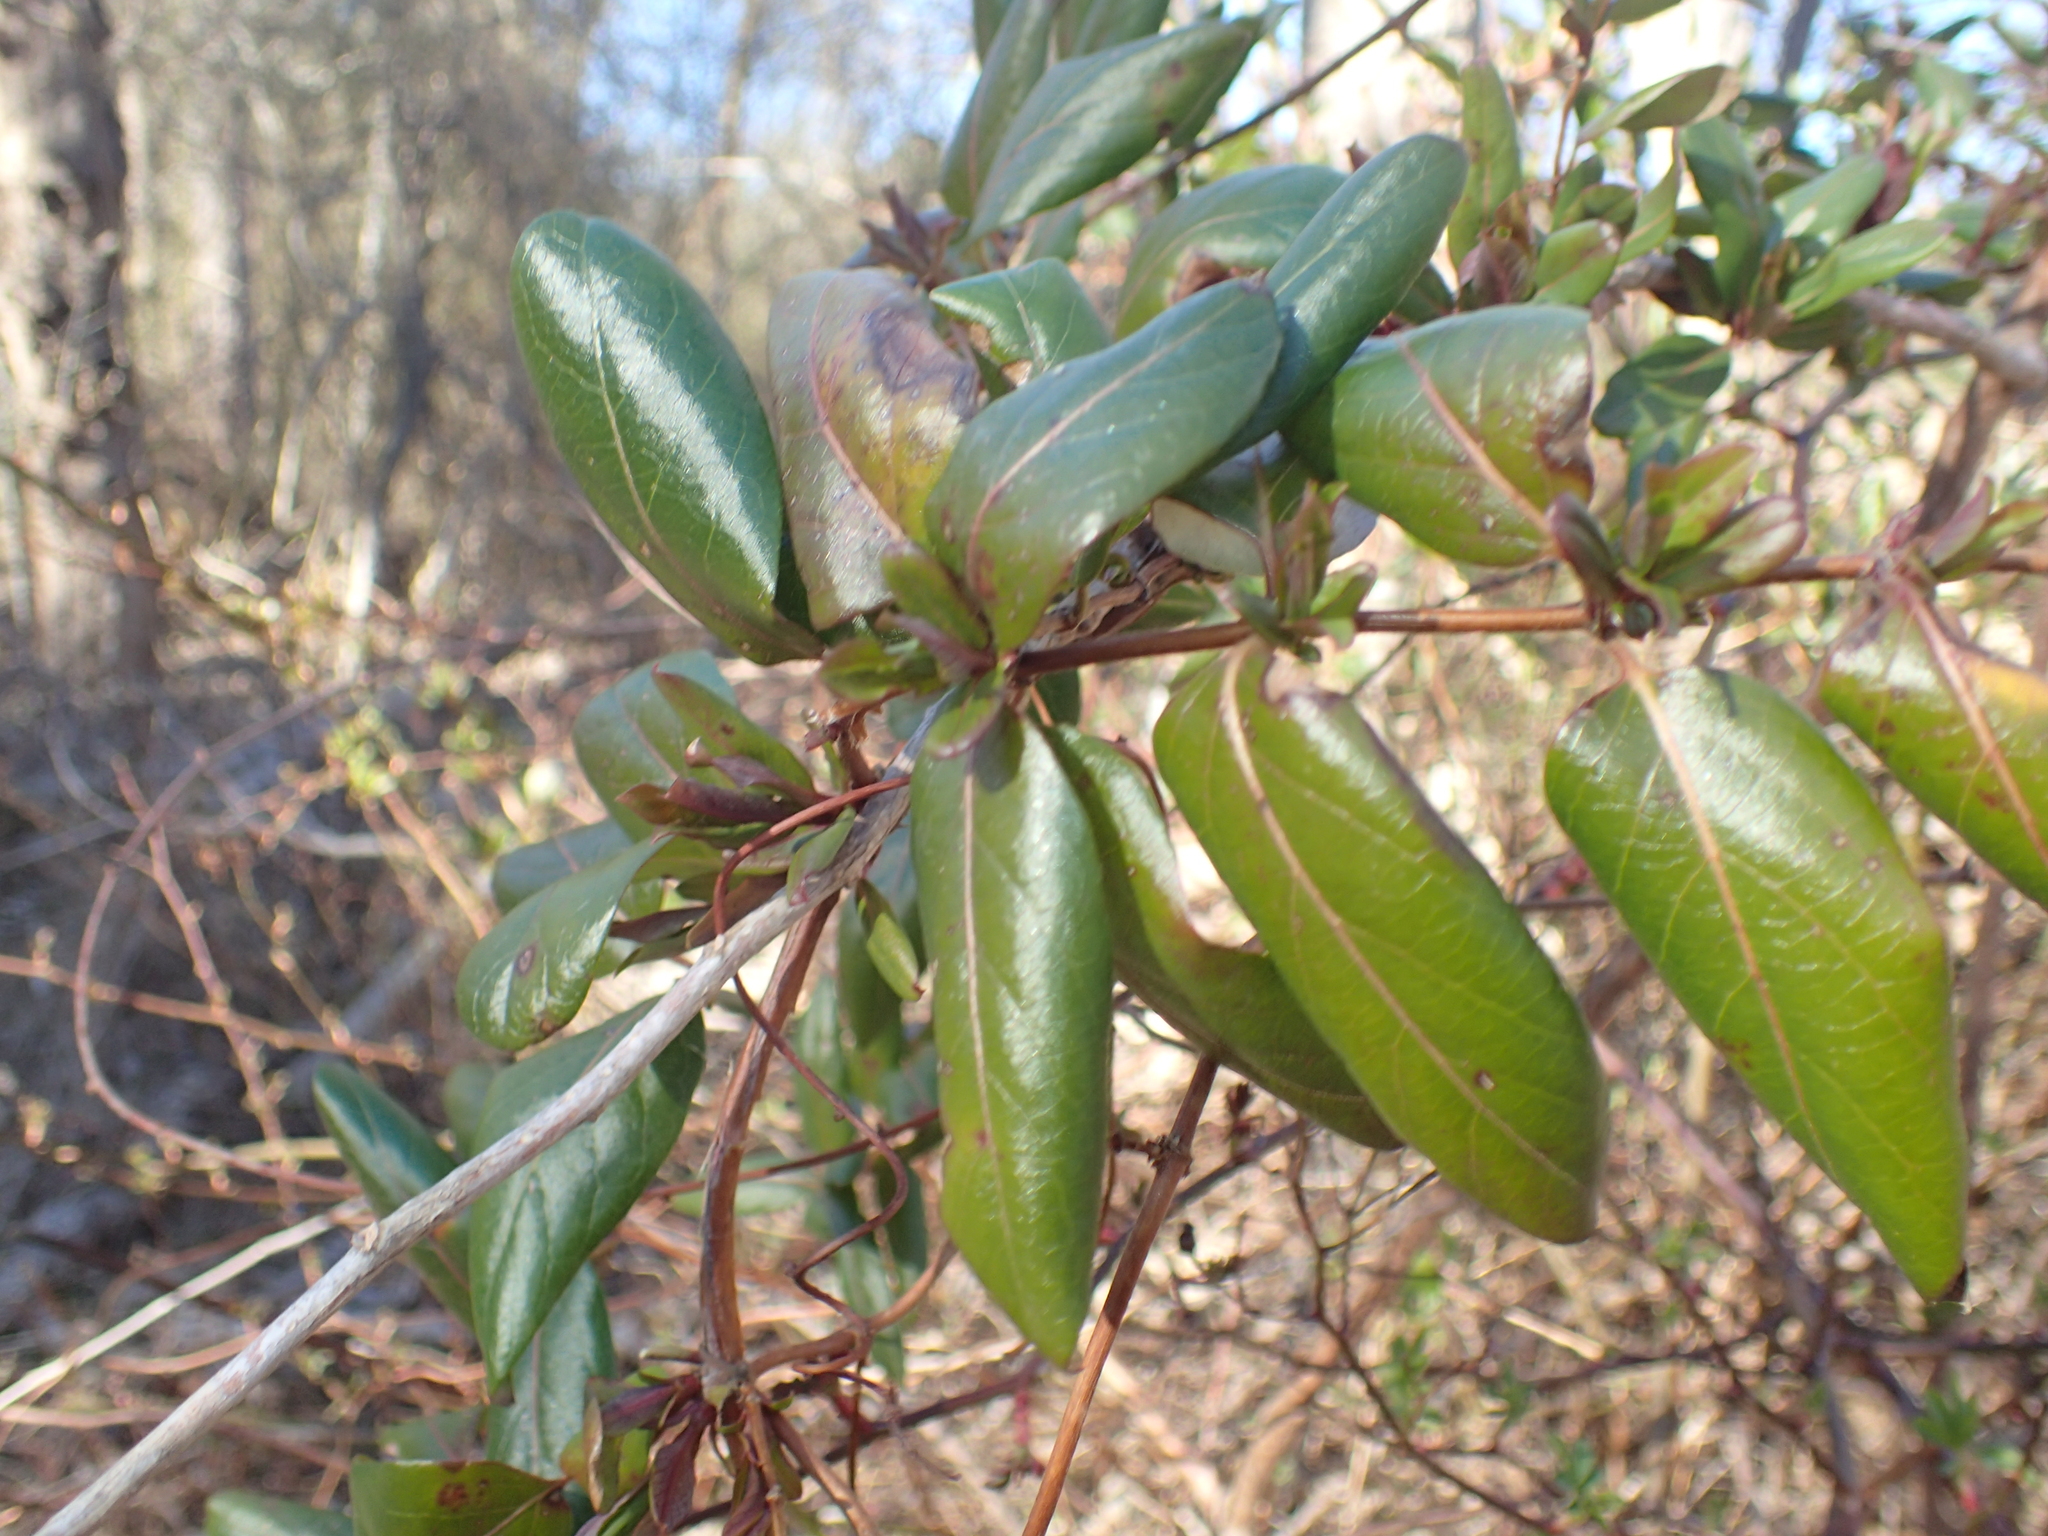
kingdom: Plantae
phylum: Tracheophyta
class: Magnoliopsida
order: Dipsacales
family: Caprifoliaceae
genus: Lonicera
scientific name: Lonicera japonica
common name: Japanese honeysuckle
